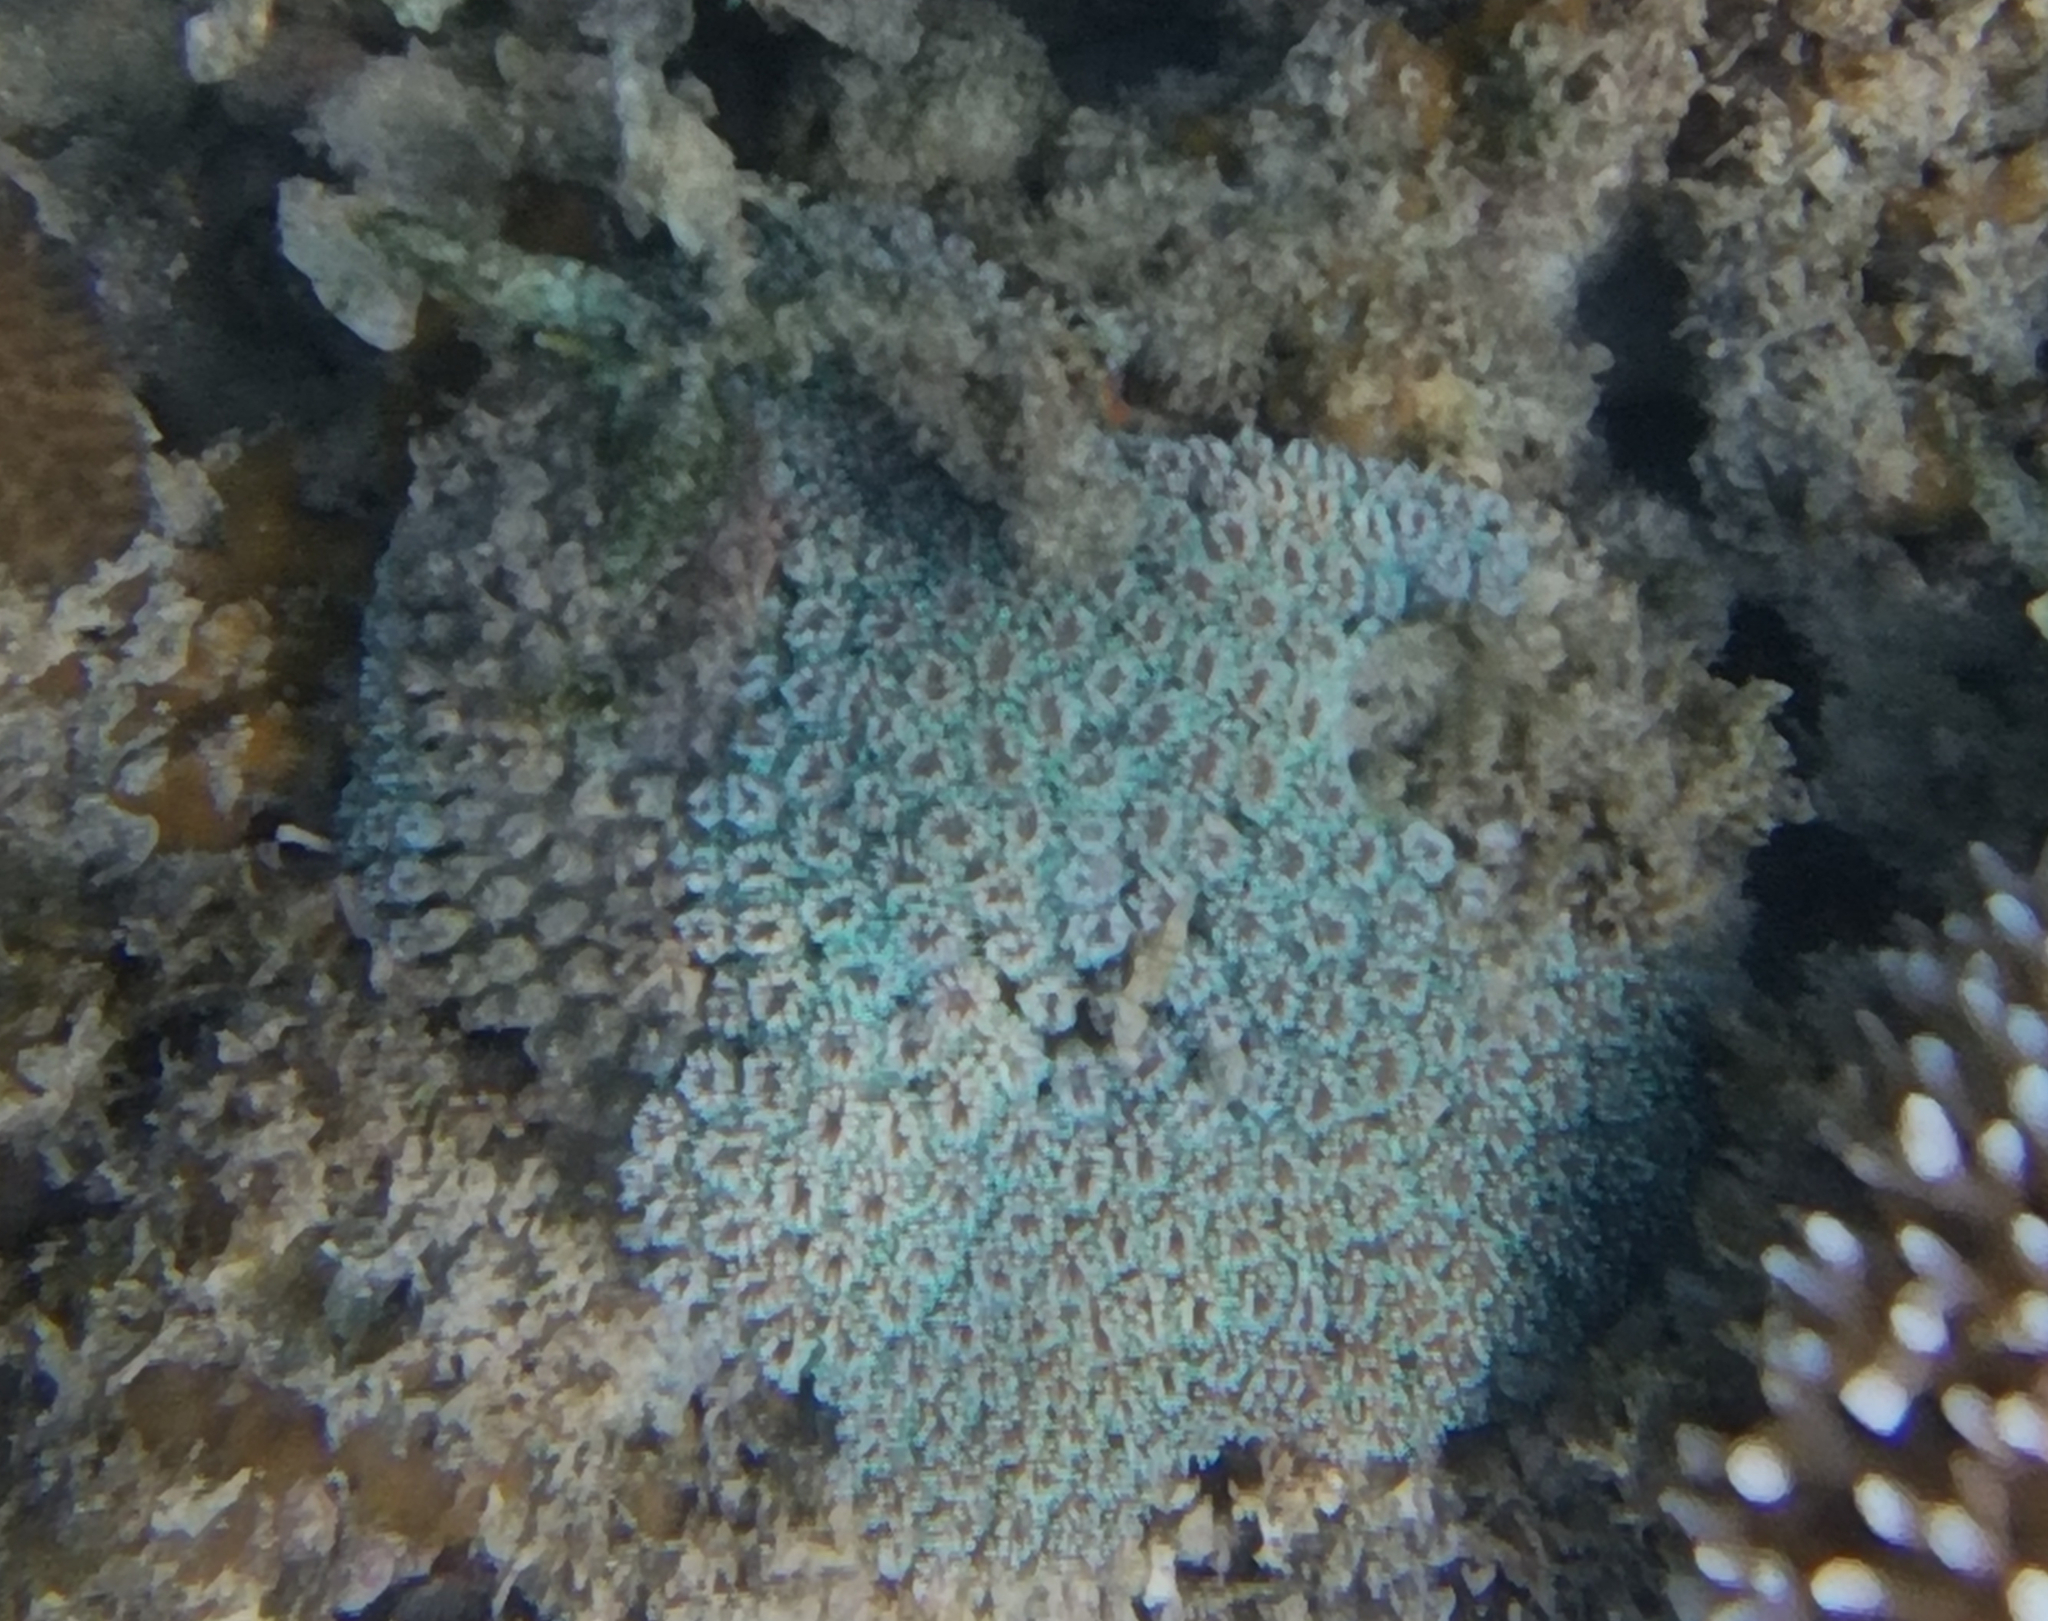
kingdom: Animalia
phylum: Cnidaria
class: Anthozoa
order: Scleractinia
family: Euphylliidae
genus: Galaxea
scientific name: Galaxea fascicularis
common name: Octopus coral
